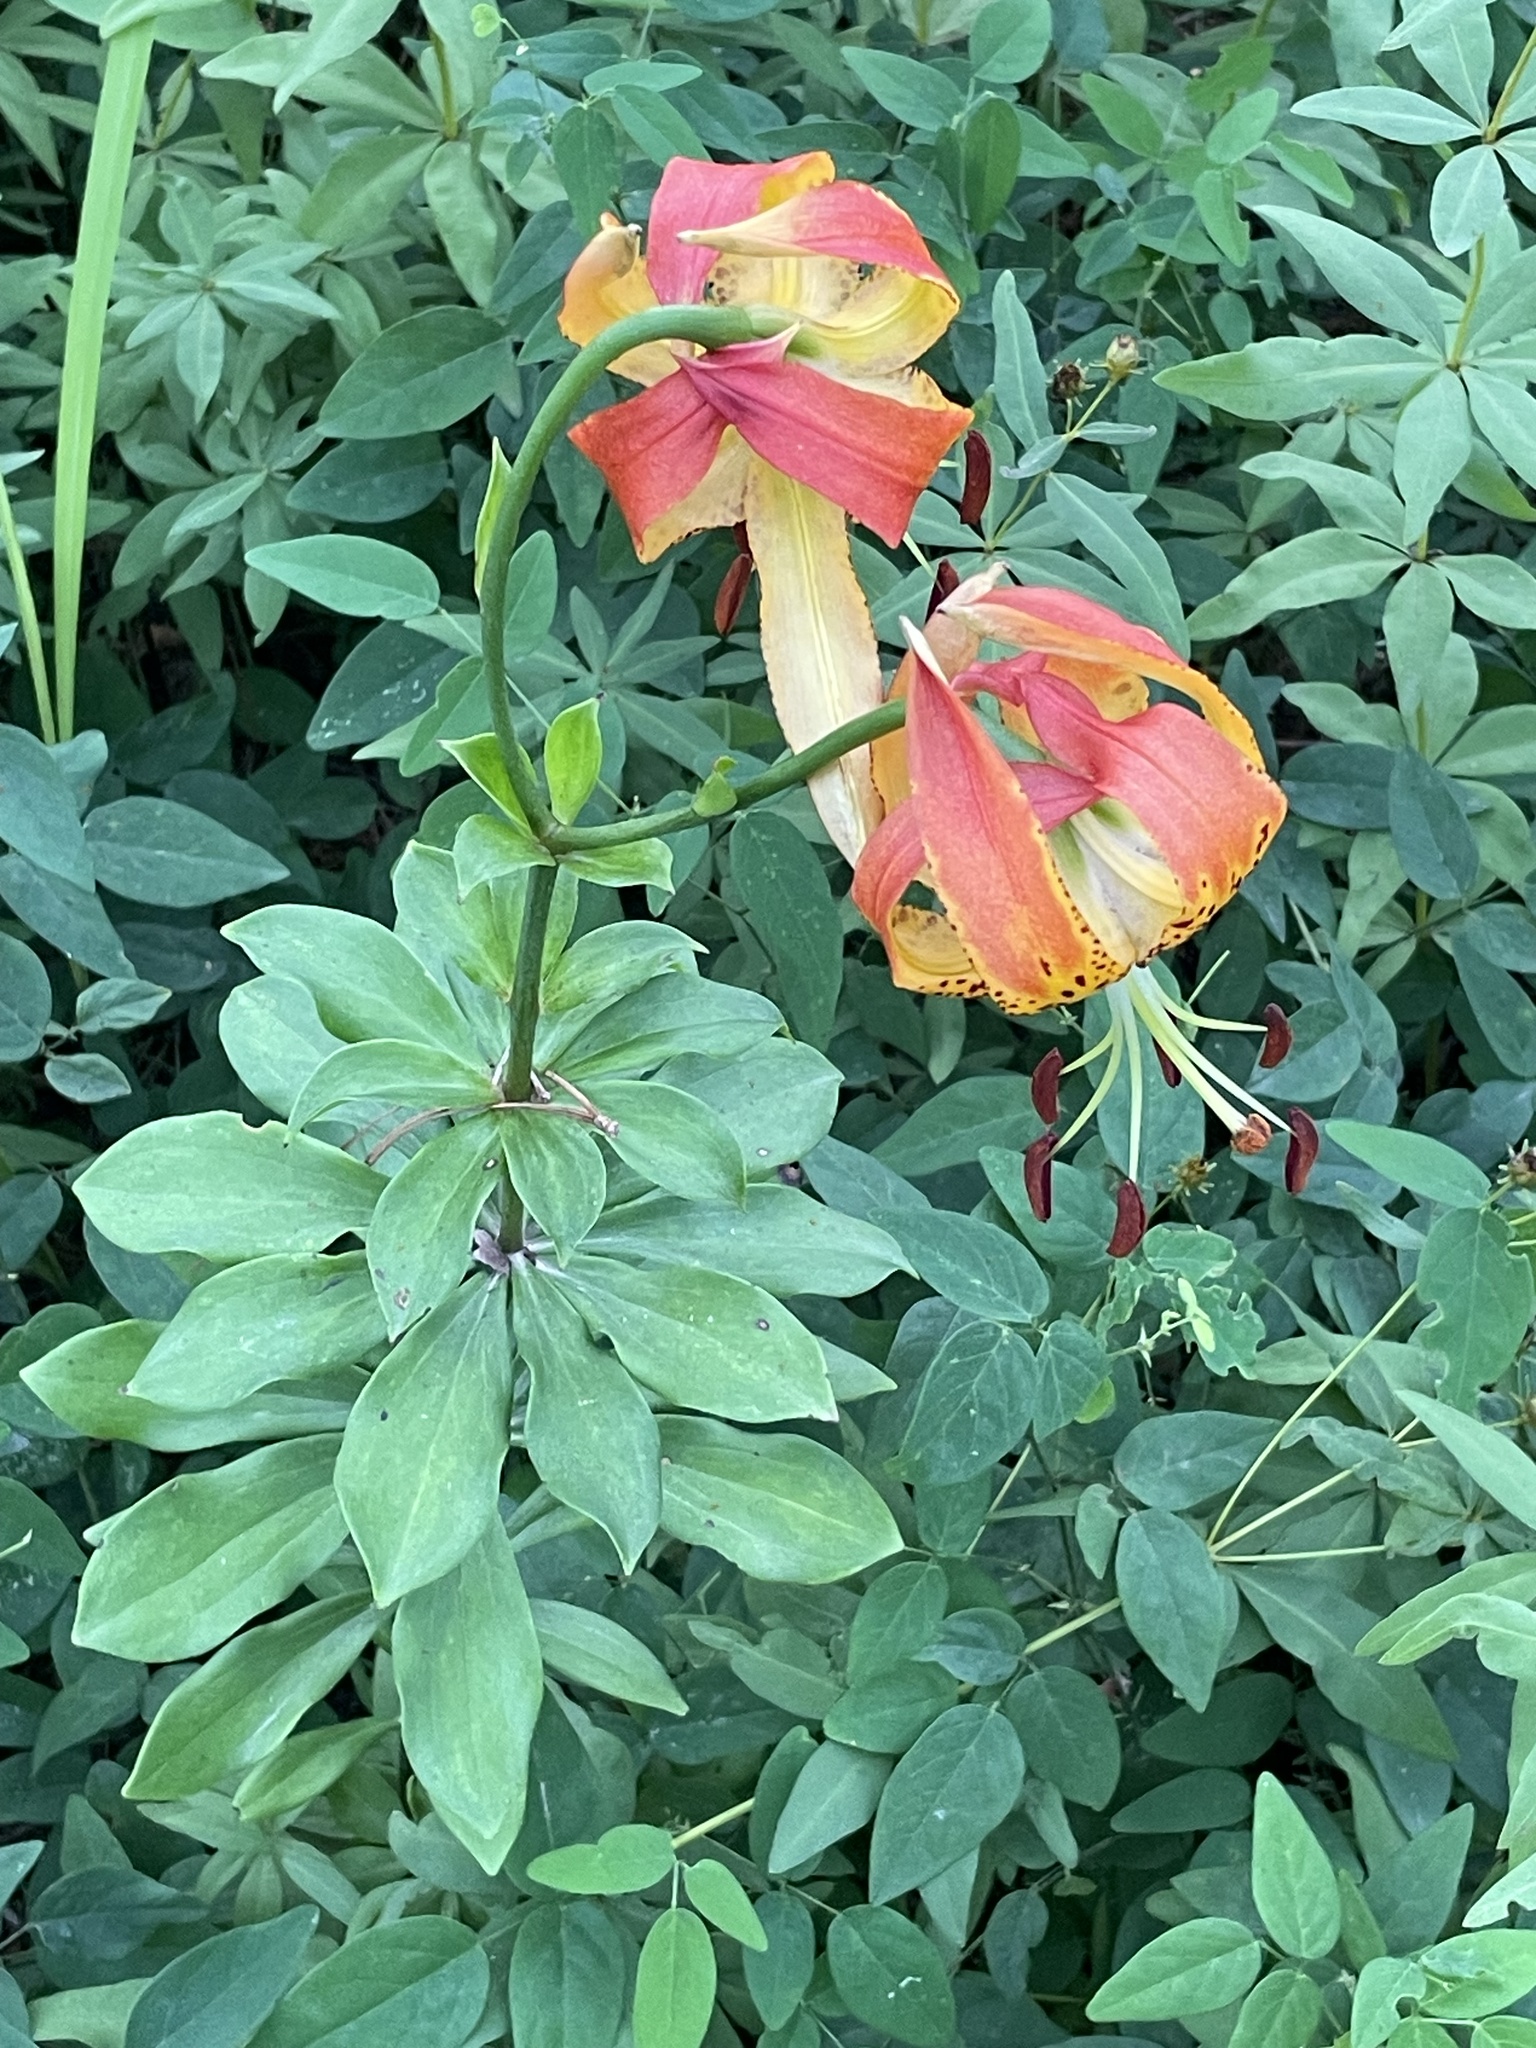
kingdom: Plantae
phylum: Tracheophyta
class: Liliopsida
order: Liliales
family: Liliaceae
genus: Lilium
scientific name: Lilium michauxii
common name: Carolina lily
